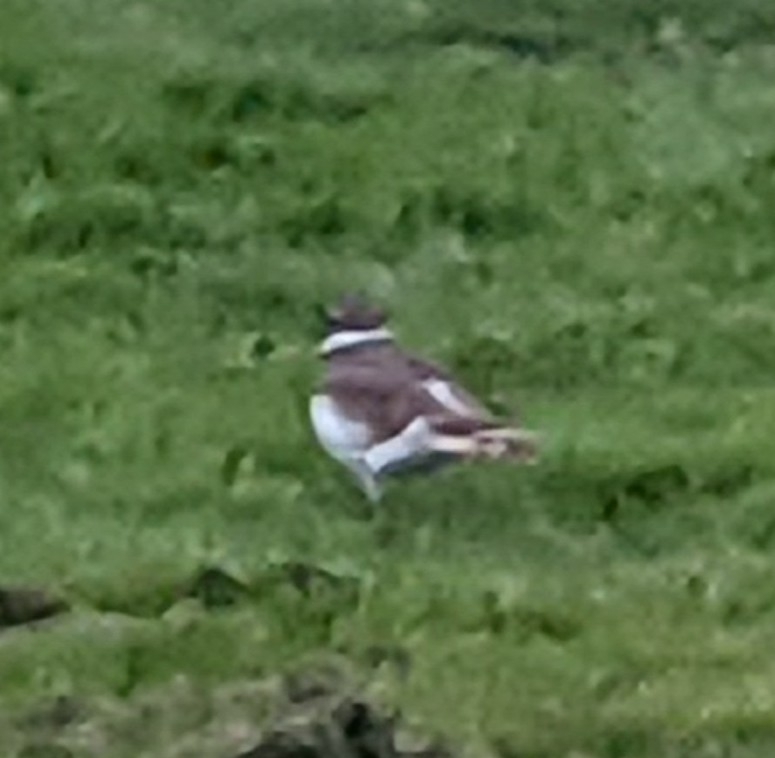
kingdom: Animalia
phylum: Chordata
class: Aves
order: Charadriiformes
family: Charadriidae
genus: Charadrius
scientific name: Charadrius vociferus
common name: Killdeer
